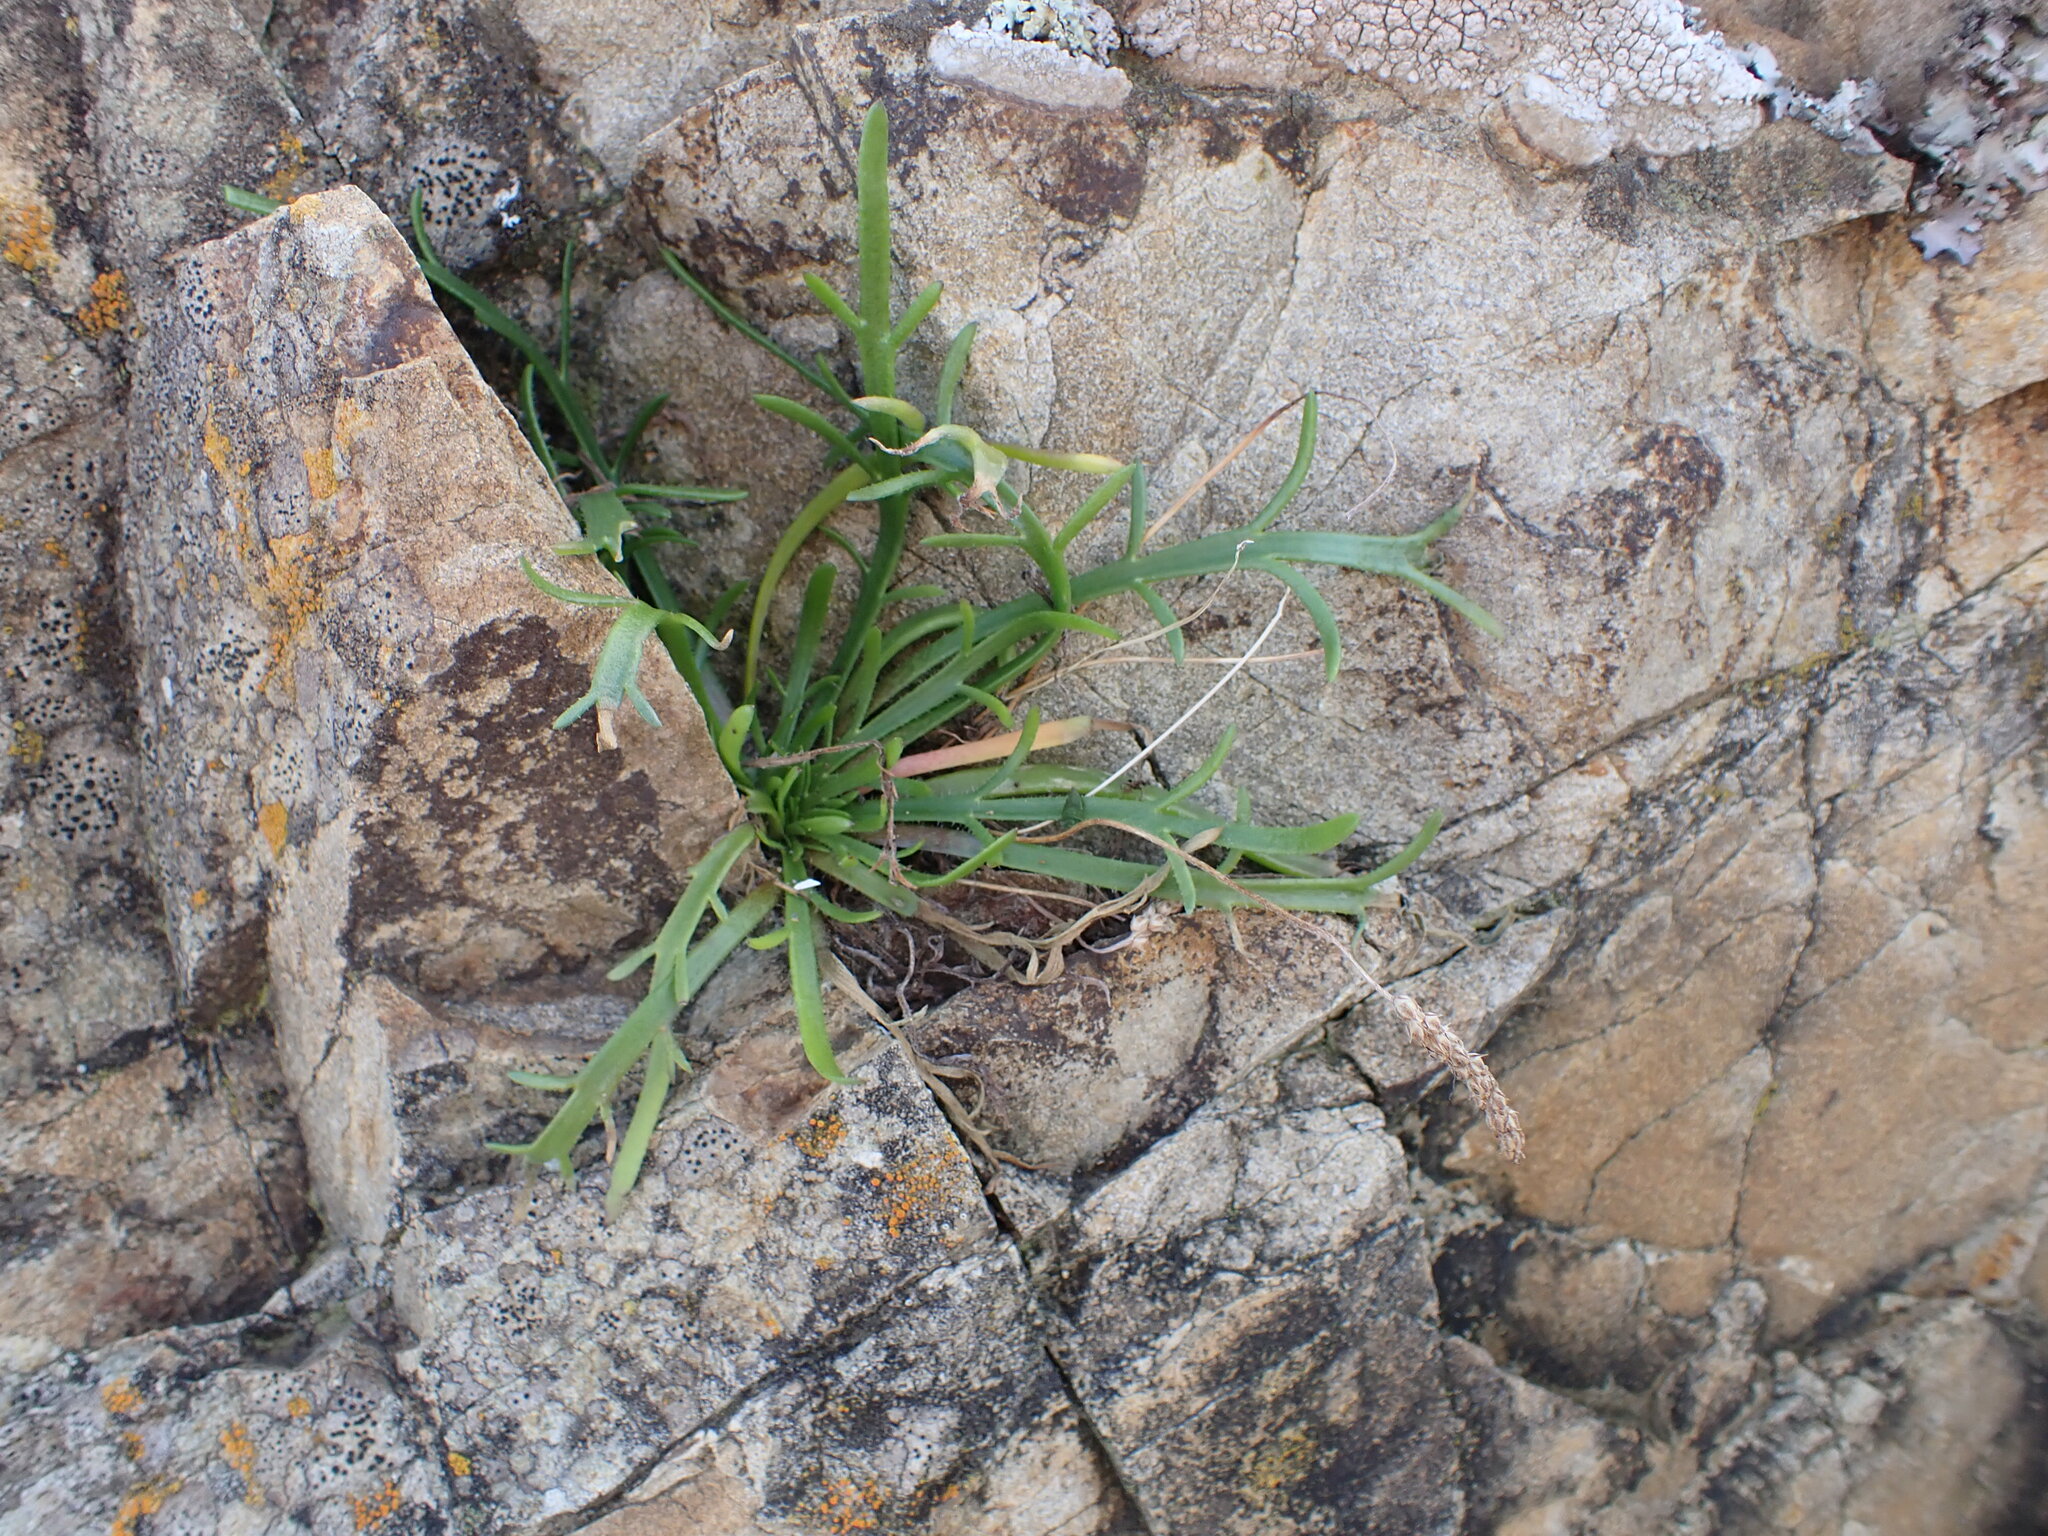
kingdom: Plantae
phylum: Tracheophyta
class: Magnoliopsida
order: Lamiales
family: Plantaginaceae
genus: Plantago
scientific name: Plantago coronopus
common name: Buck's-horn plantain
